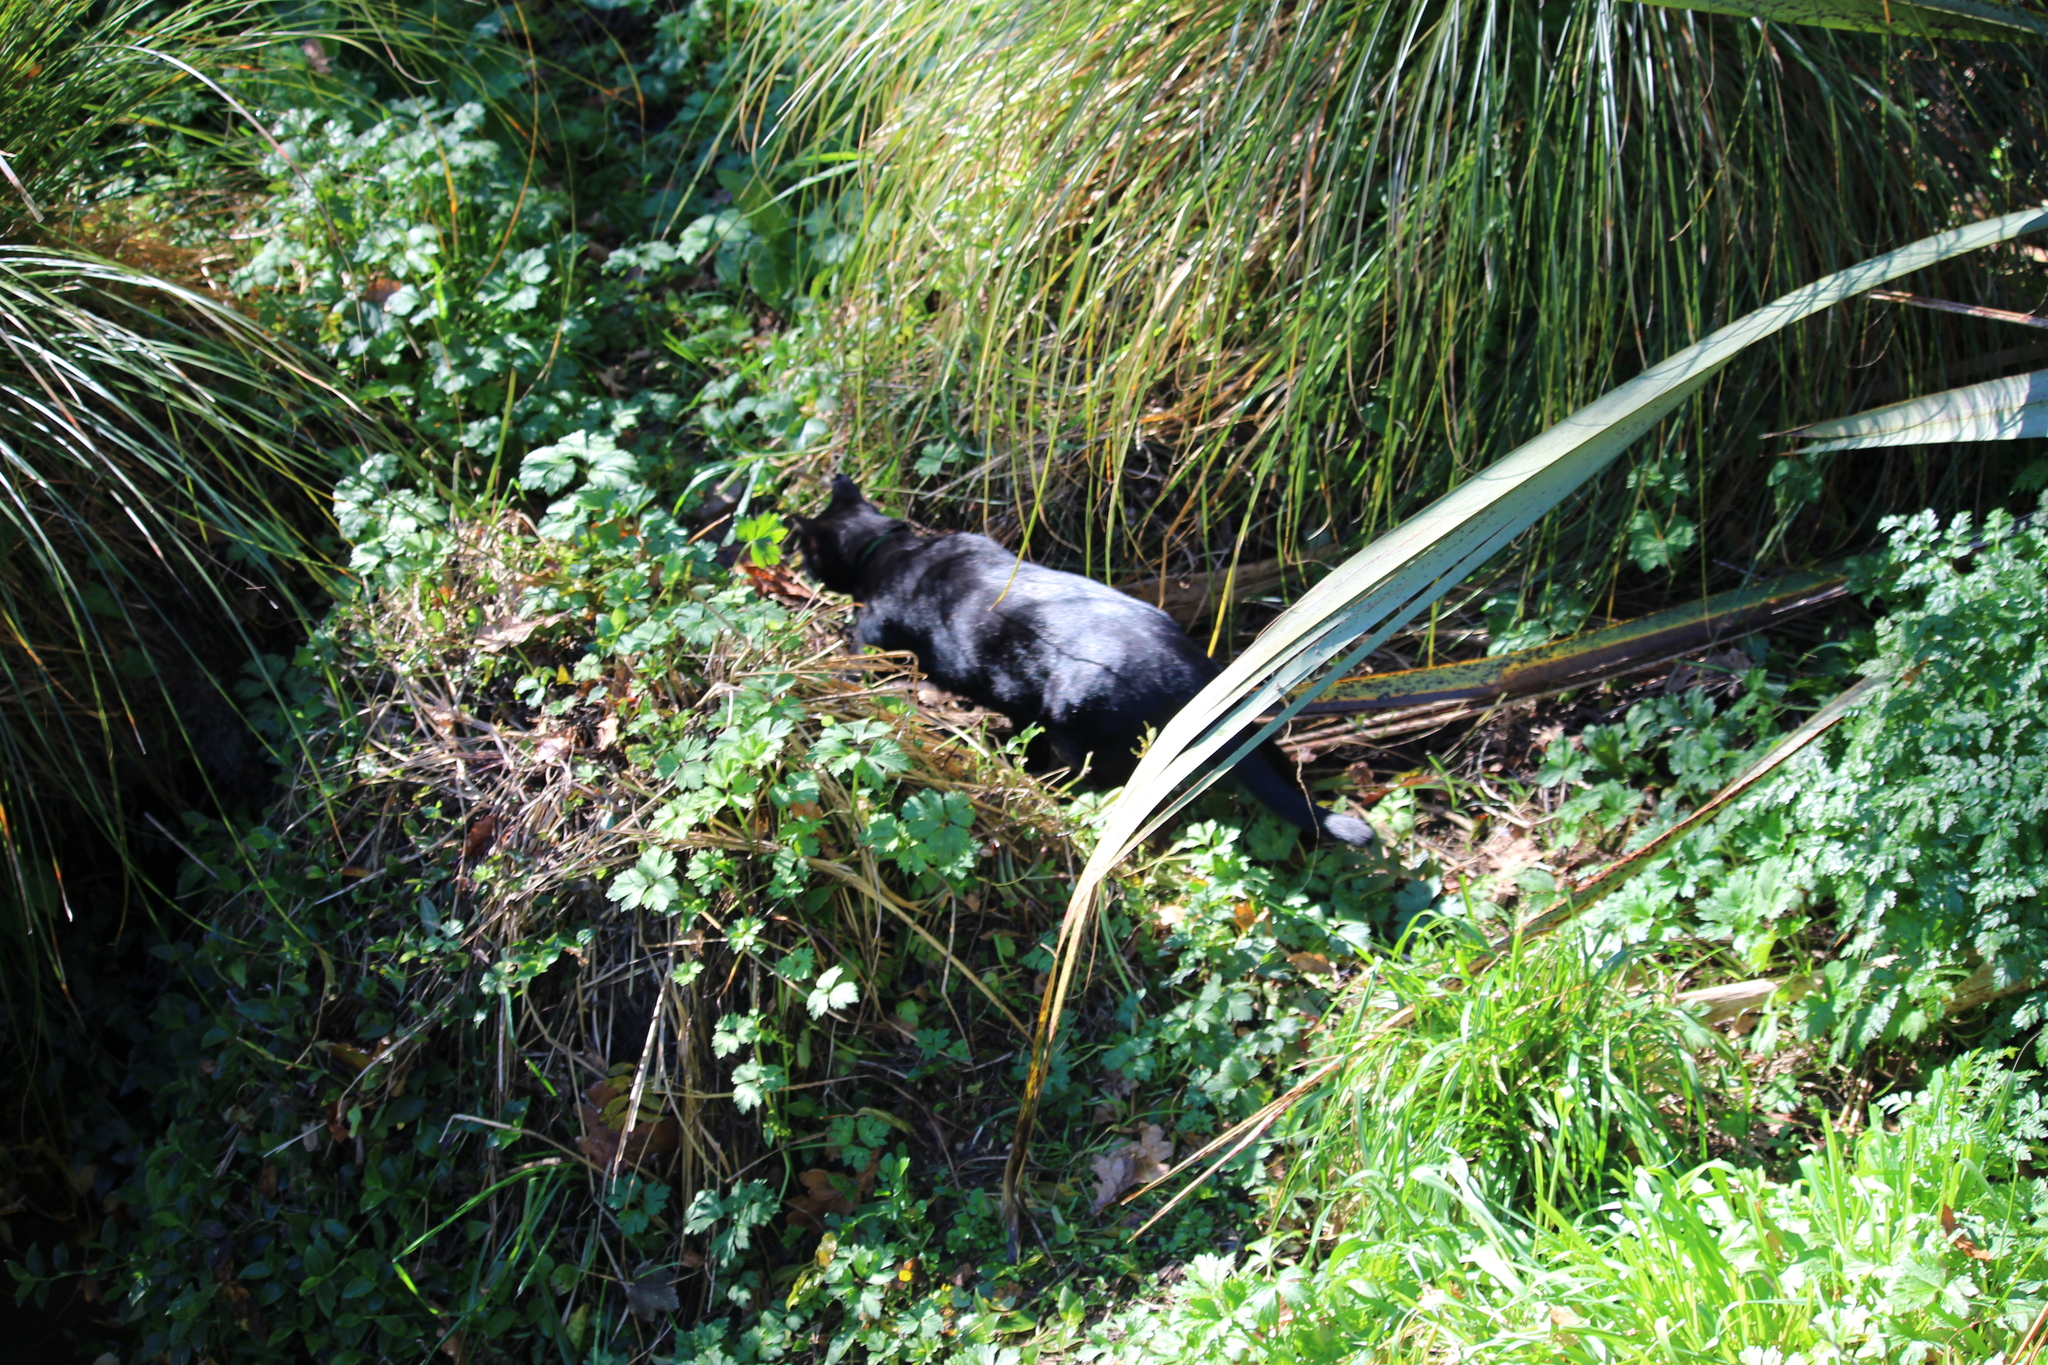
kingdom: Animalia
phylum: Chordata
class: Mammalia
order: Carnivora
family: Felidae
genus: Felis
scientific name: Felis catus
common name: Domestic cat
